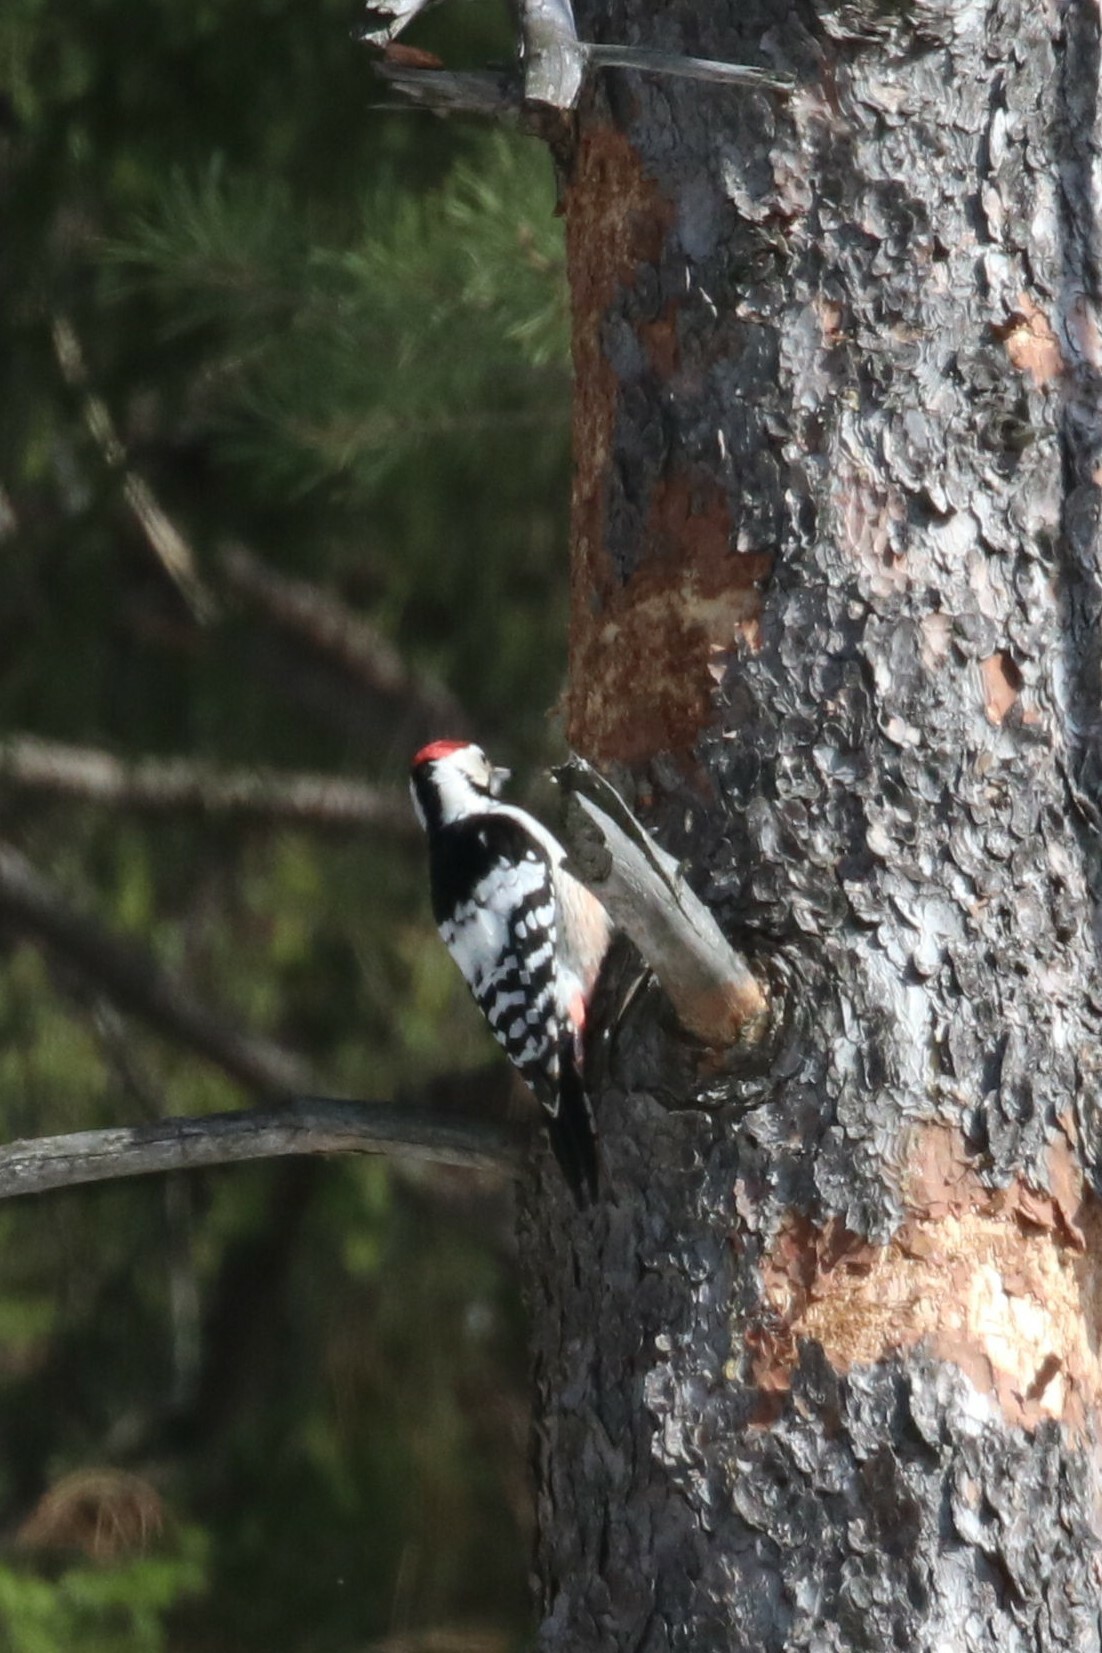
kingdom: Animalia
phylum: Chordata
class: Aves
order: Piciformes
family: Picidae
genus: Dendrocopos
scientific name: Dendrocopos leucotos
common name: White-backed woodpecker
